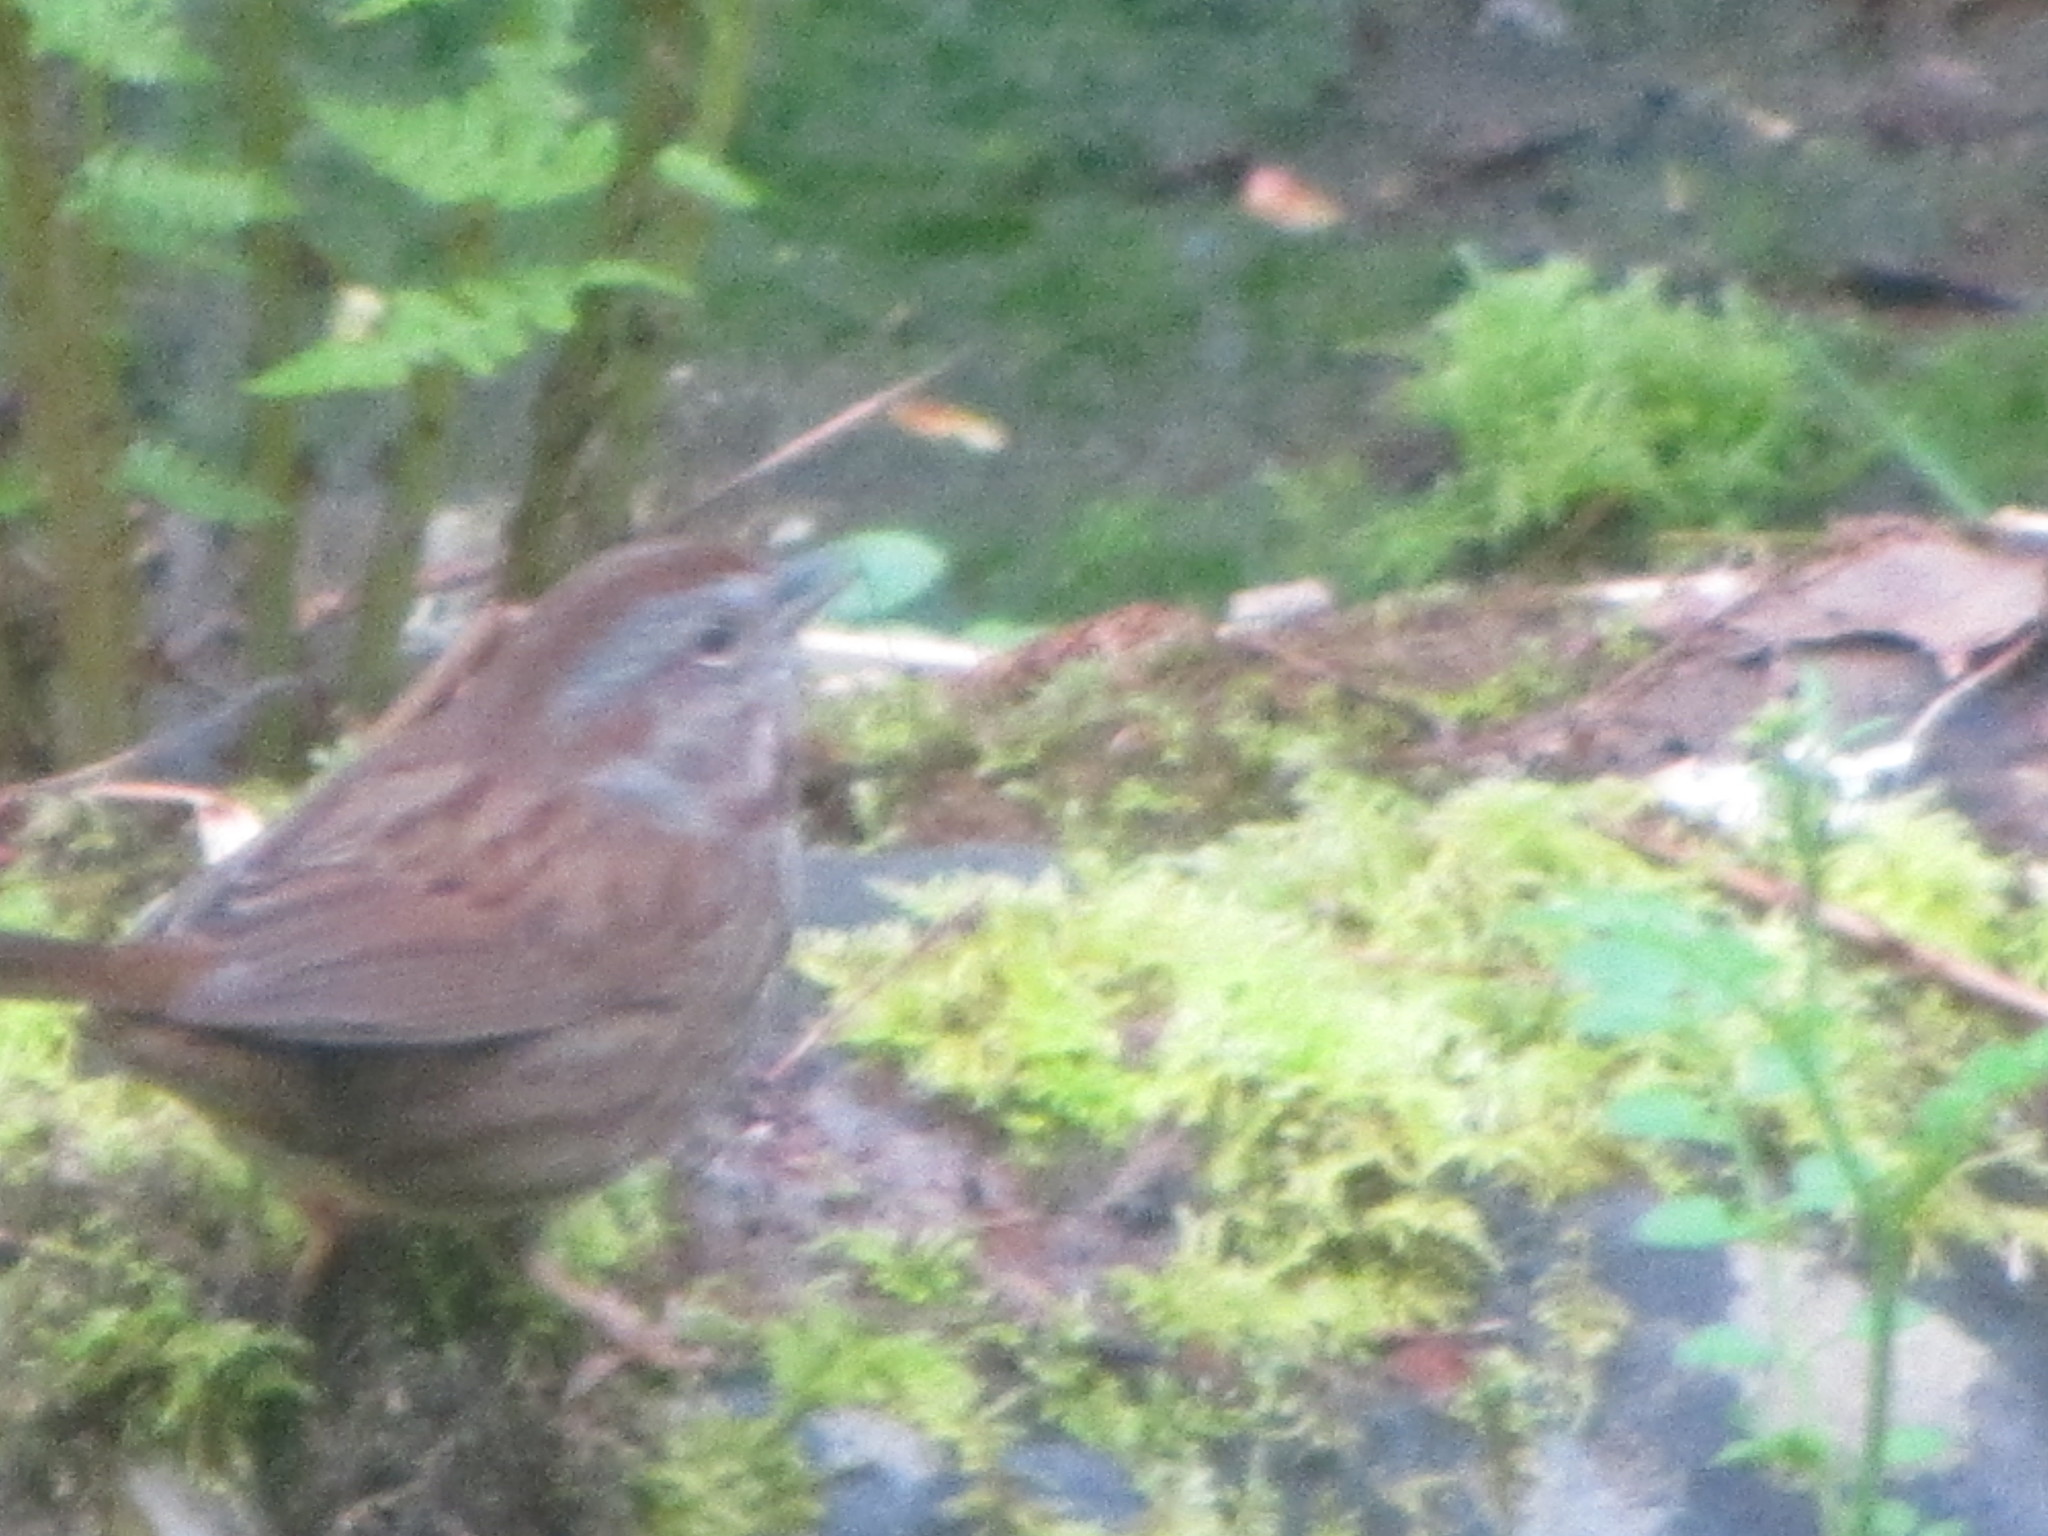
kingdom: Animalia
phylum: Chordata
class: Aves
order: Passeriformes
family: Passerellidae
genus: Melospiza
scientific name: Melospiza melodia
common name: Song sparrow
